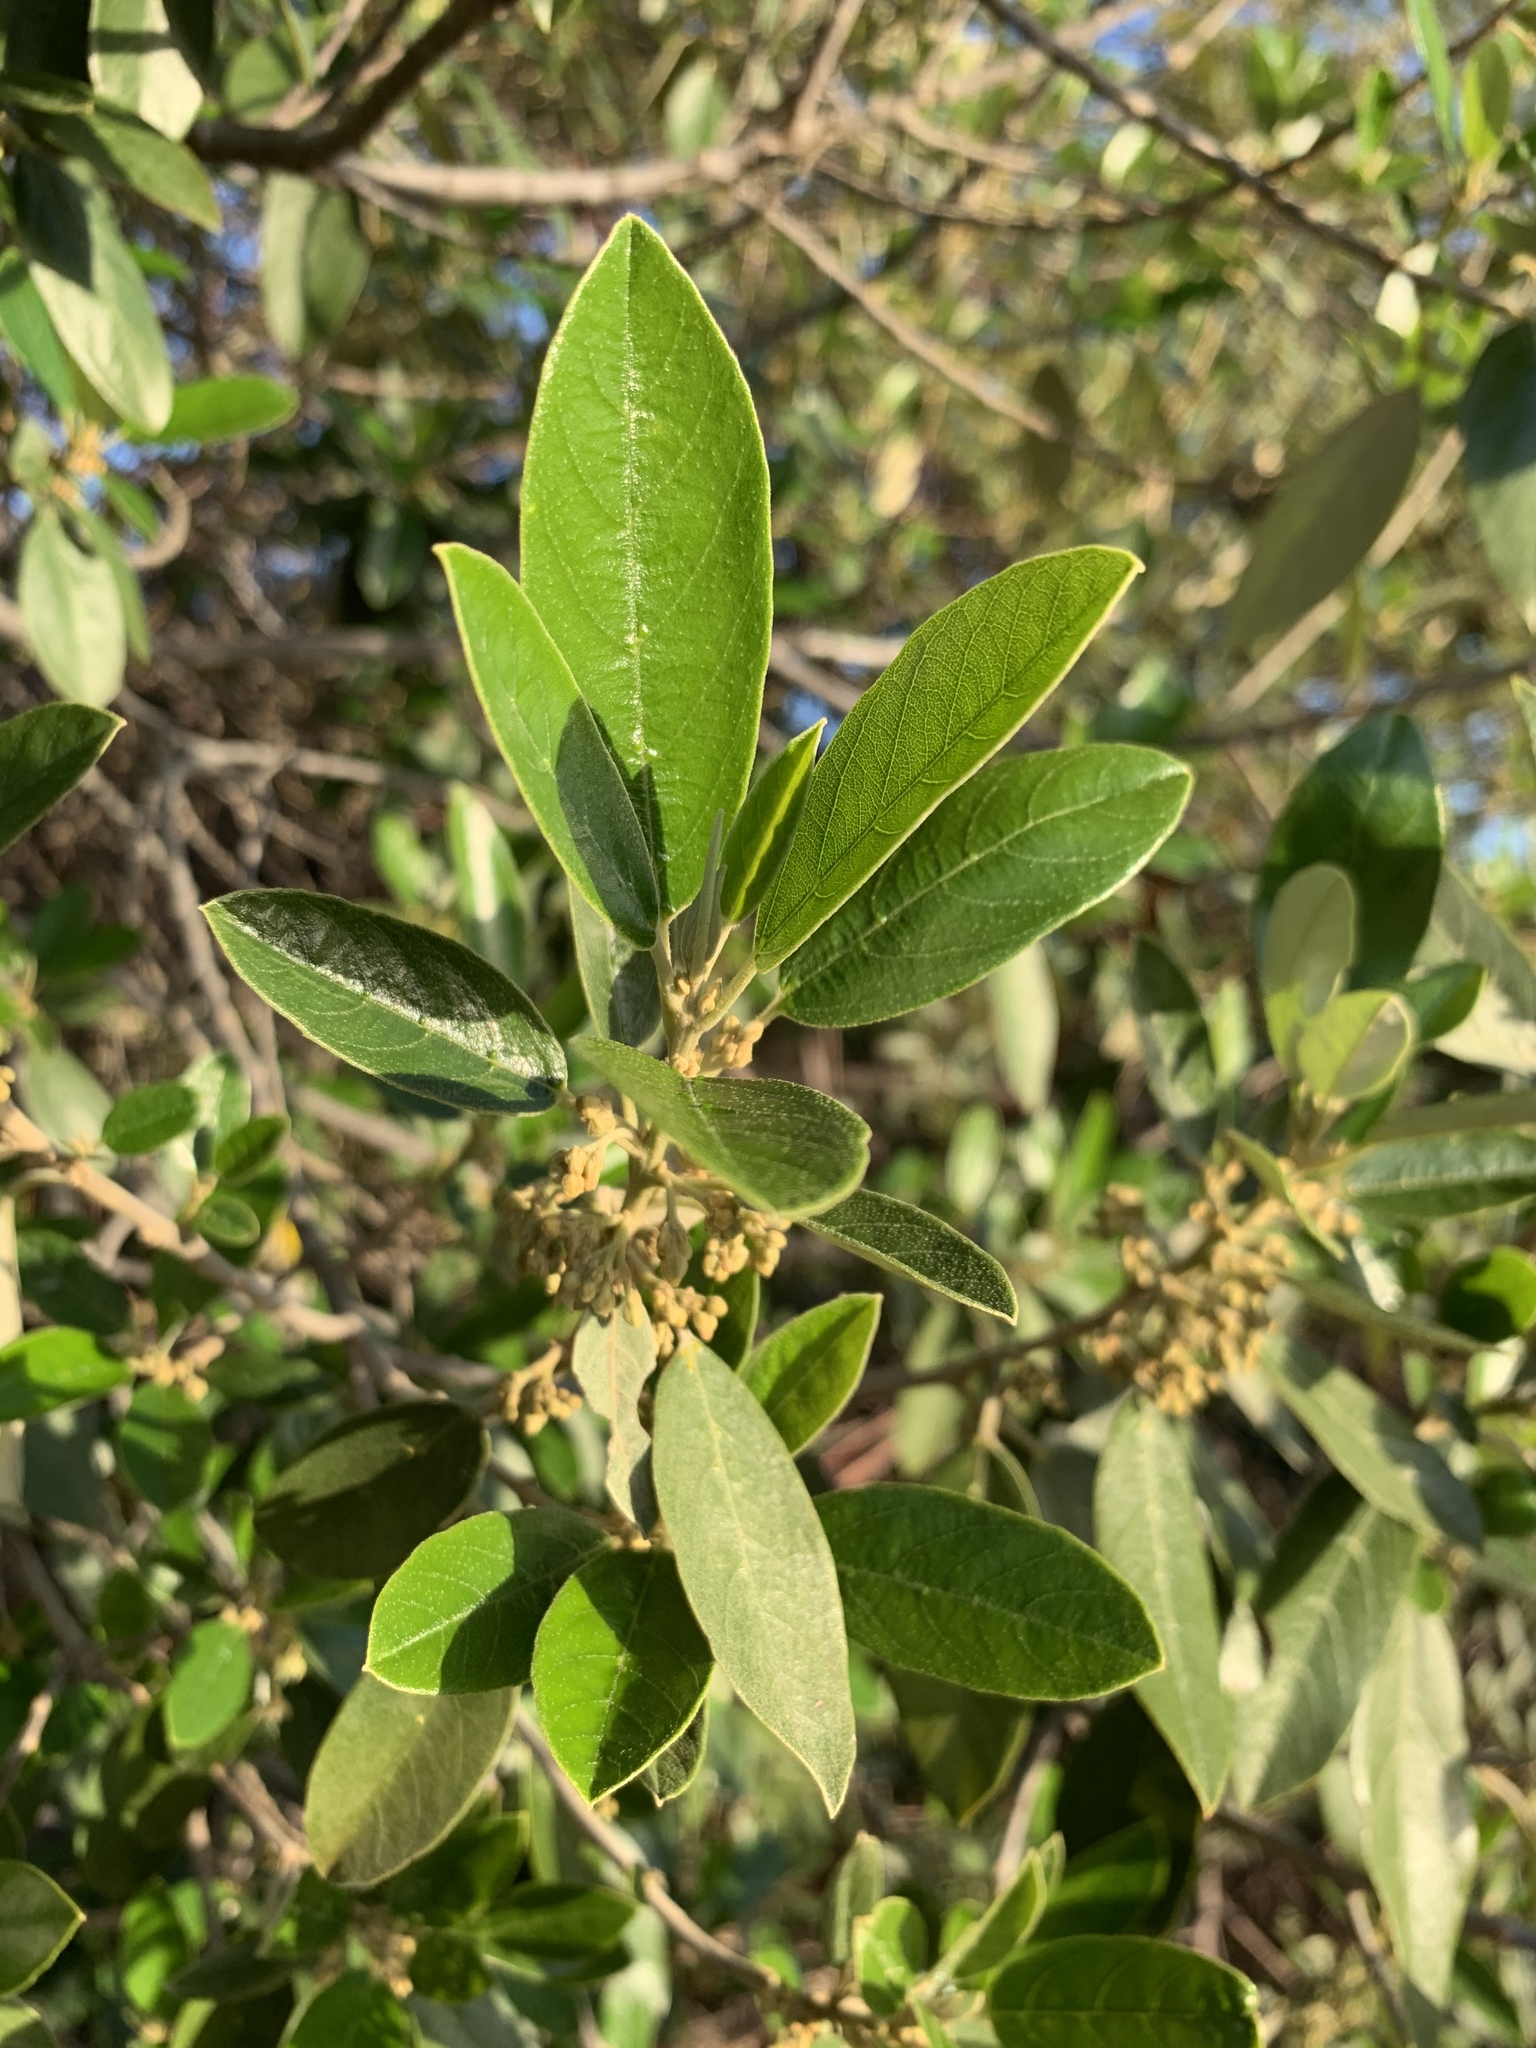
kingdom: Plantae
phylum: Tracheophyta
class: Magnoliopsida
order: Malpighiales
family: Achariaceae
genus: Kiggelaria
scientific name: Kiggelaria africana
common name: Wild peach
